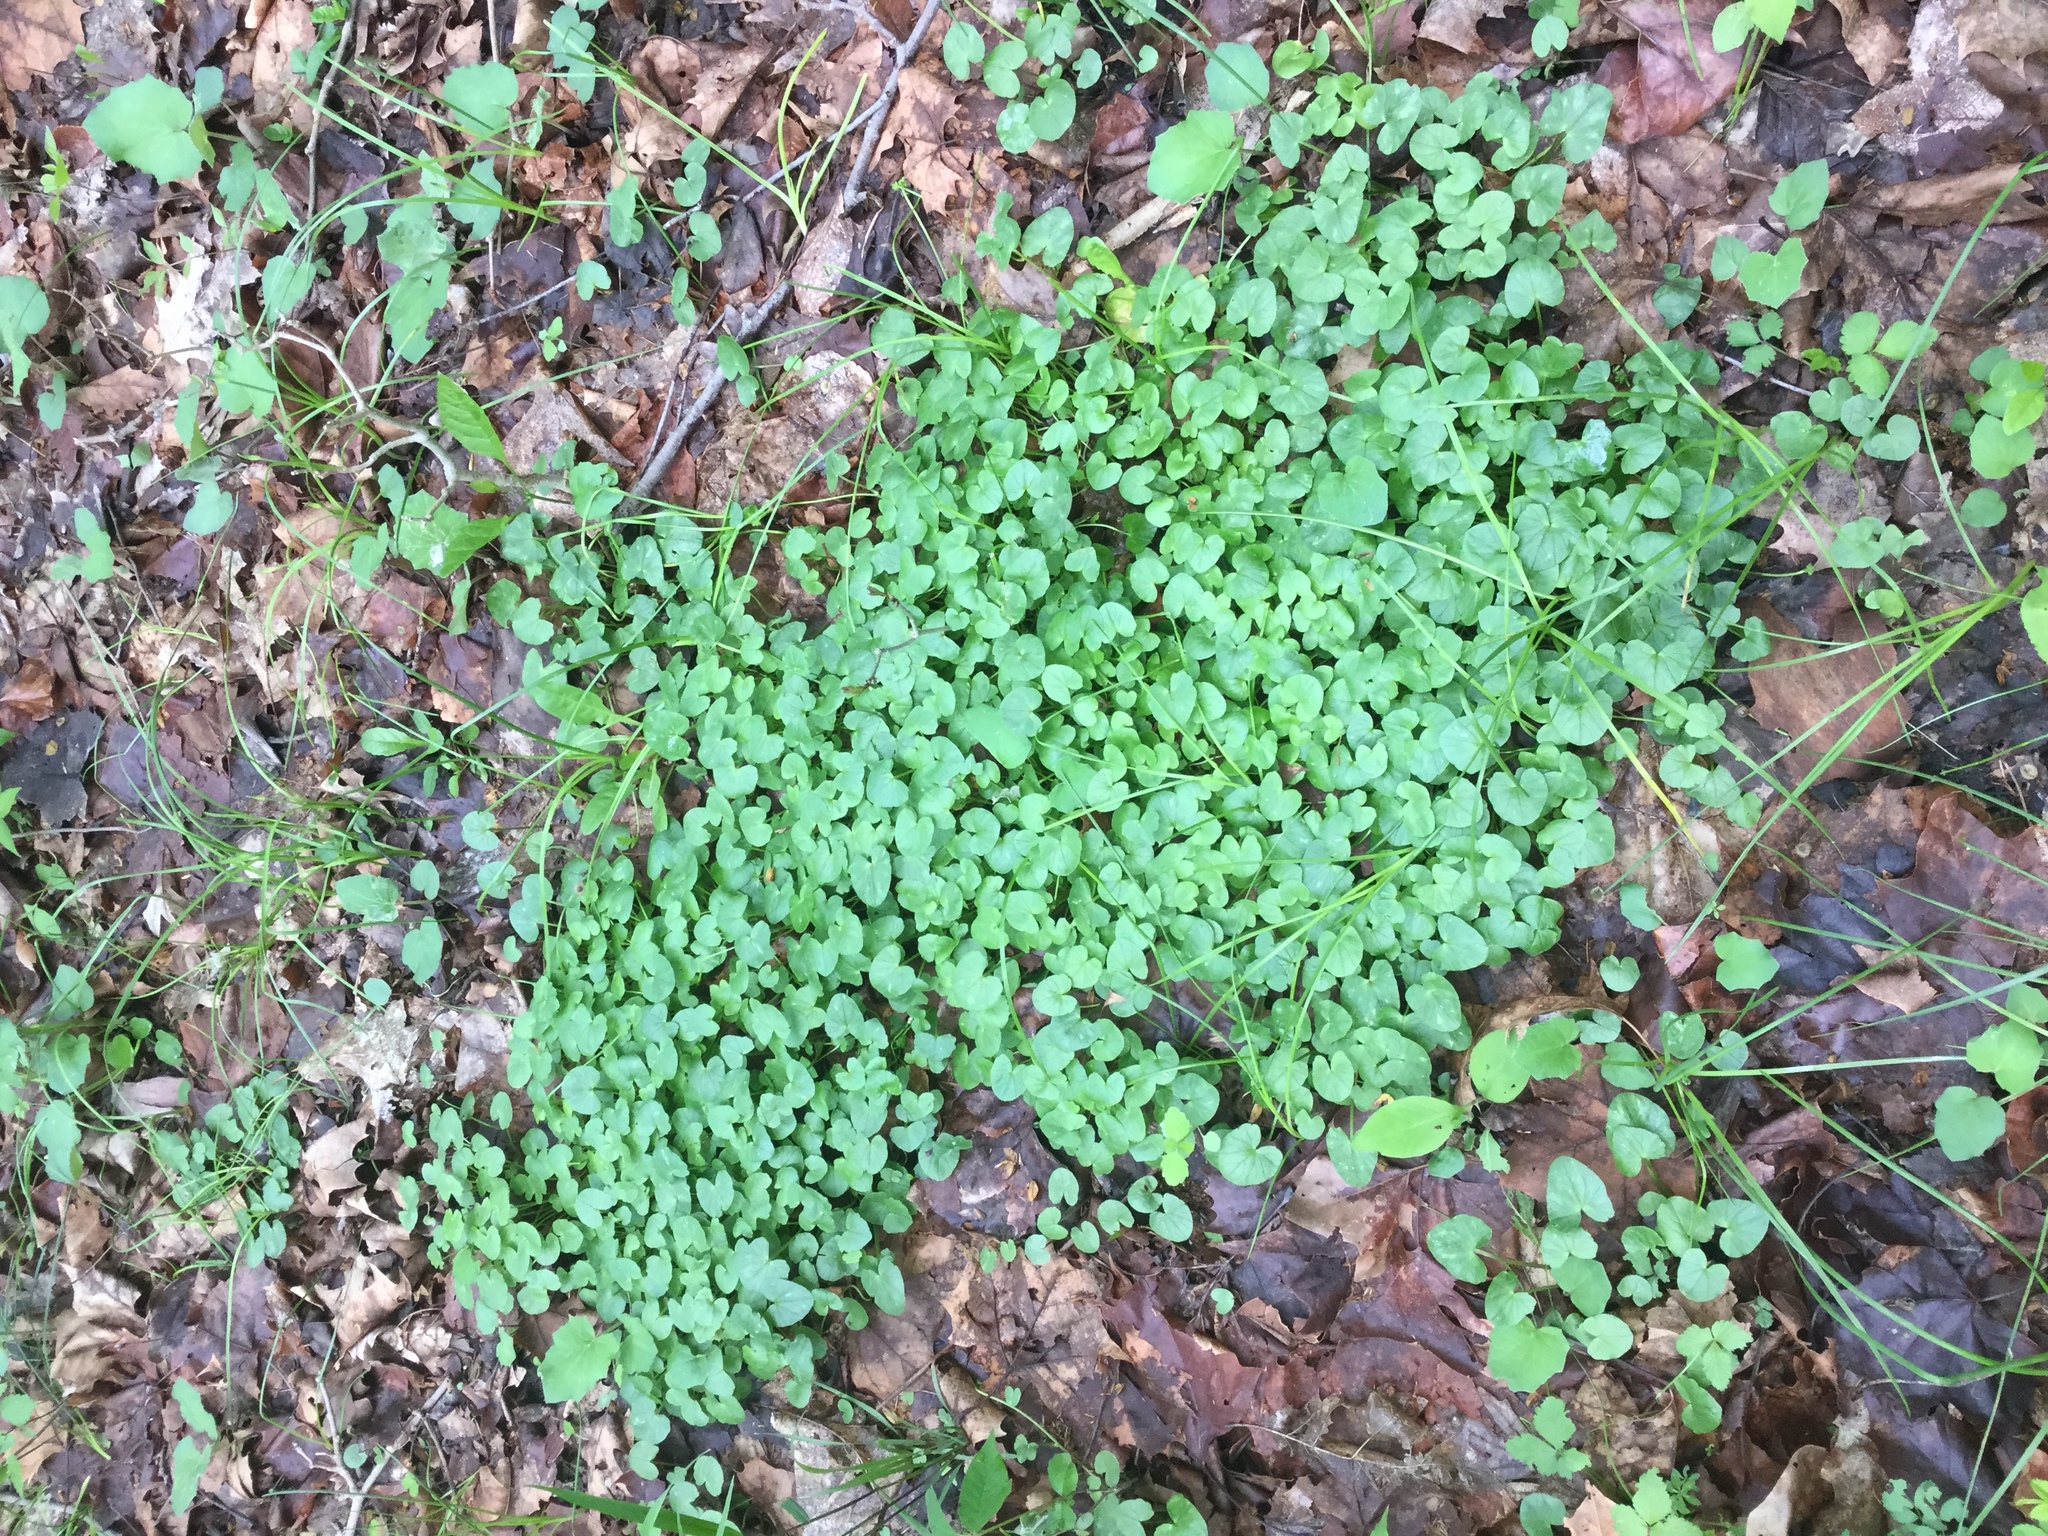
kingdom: Plantae
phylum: Tracheophyta
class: Magnoliopsida
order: Ranunculales
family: Ranunculaceae
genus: Ficaria
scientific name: Ficaria verna
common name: Lesser celandine
